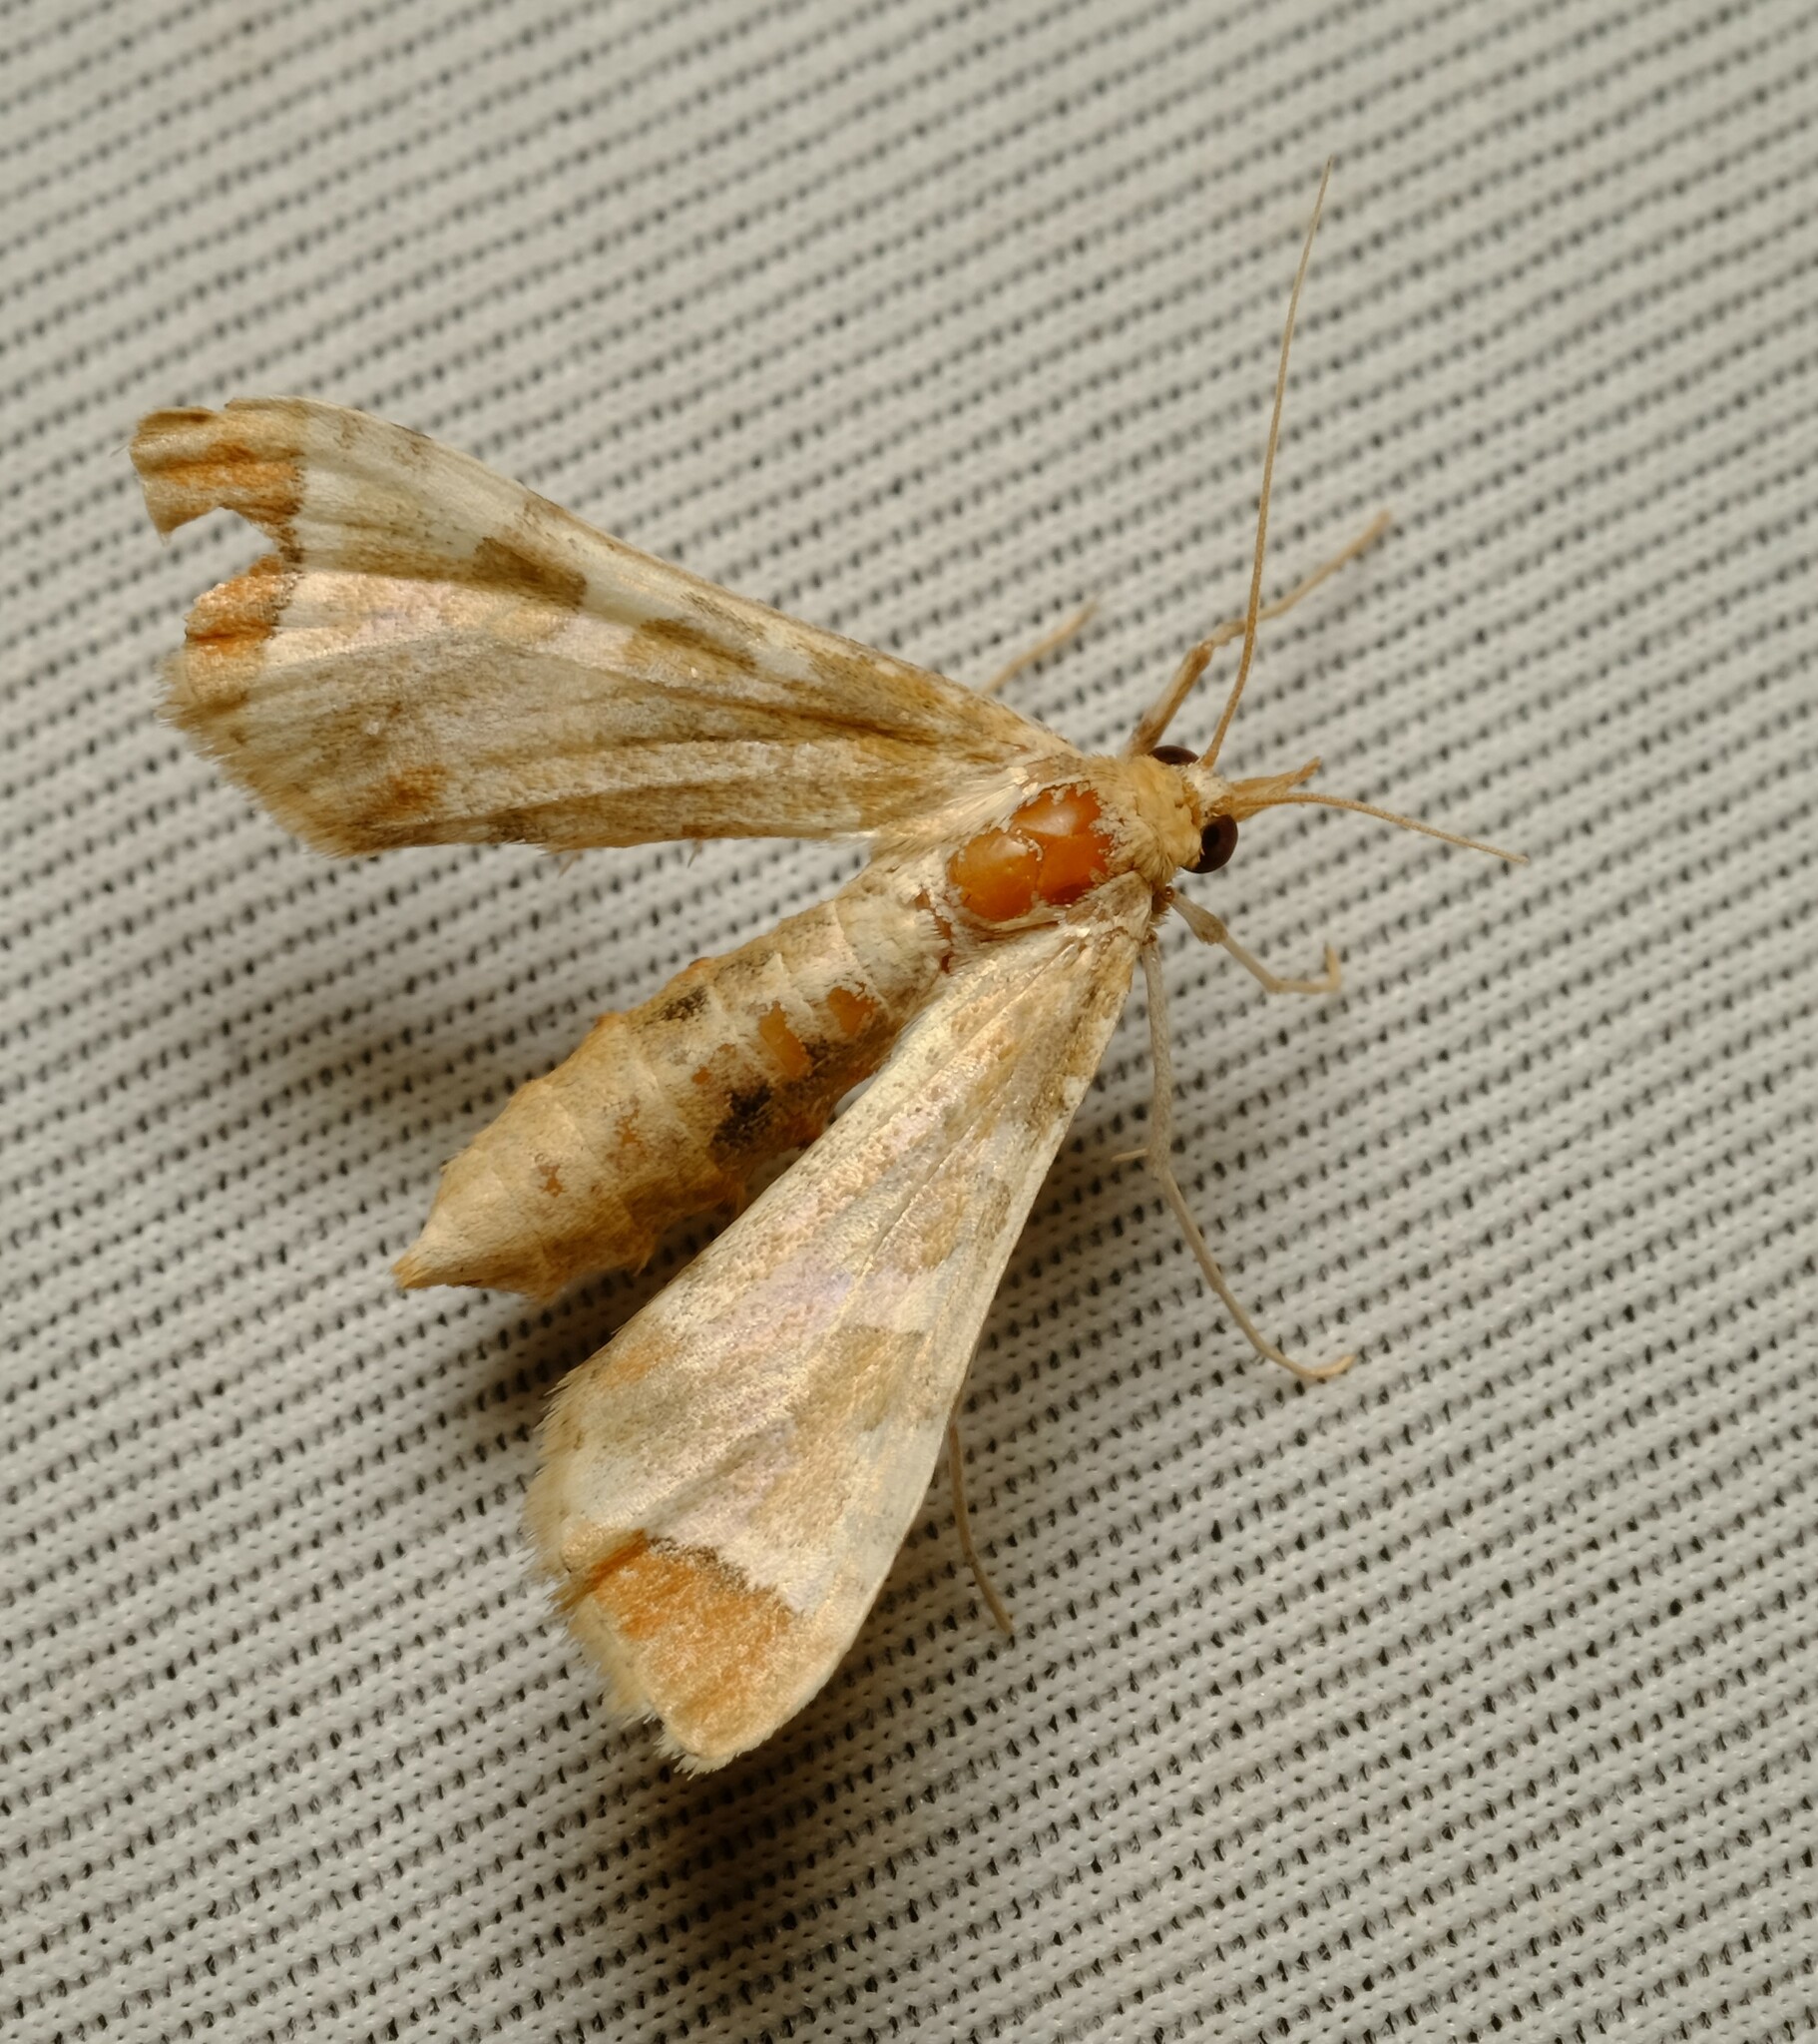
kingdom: Animalia
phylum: Arthropoda
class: Insecta
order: Lepidoptera
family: Crambidae
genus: Sceliodes
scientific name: Sceliodes cordalis
